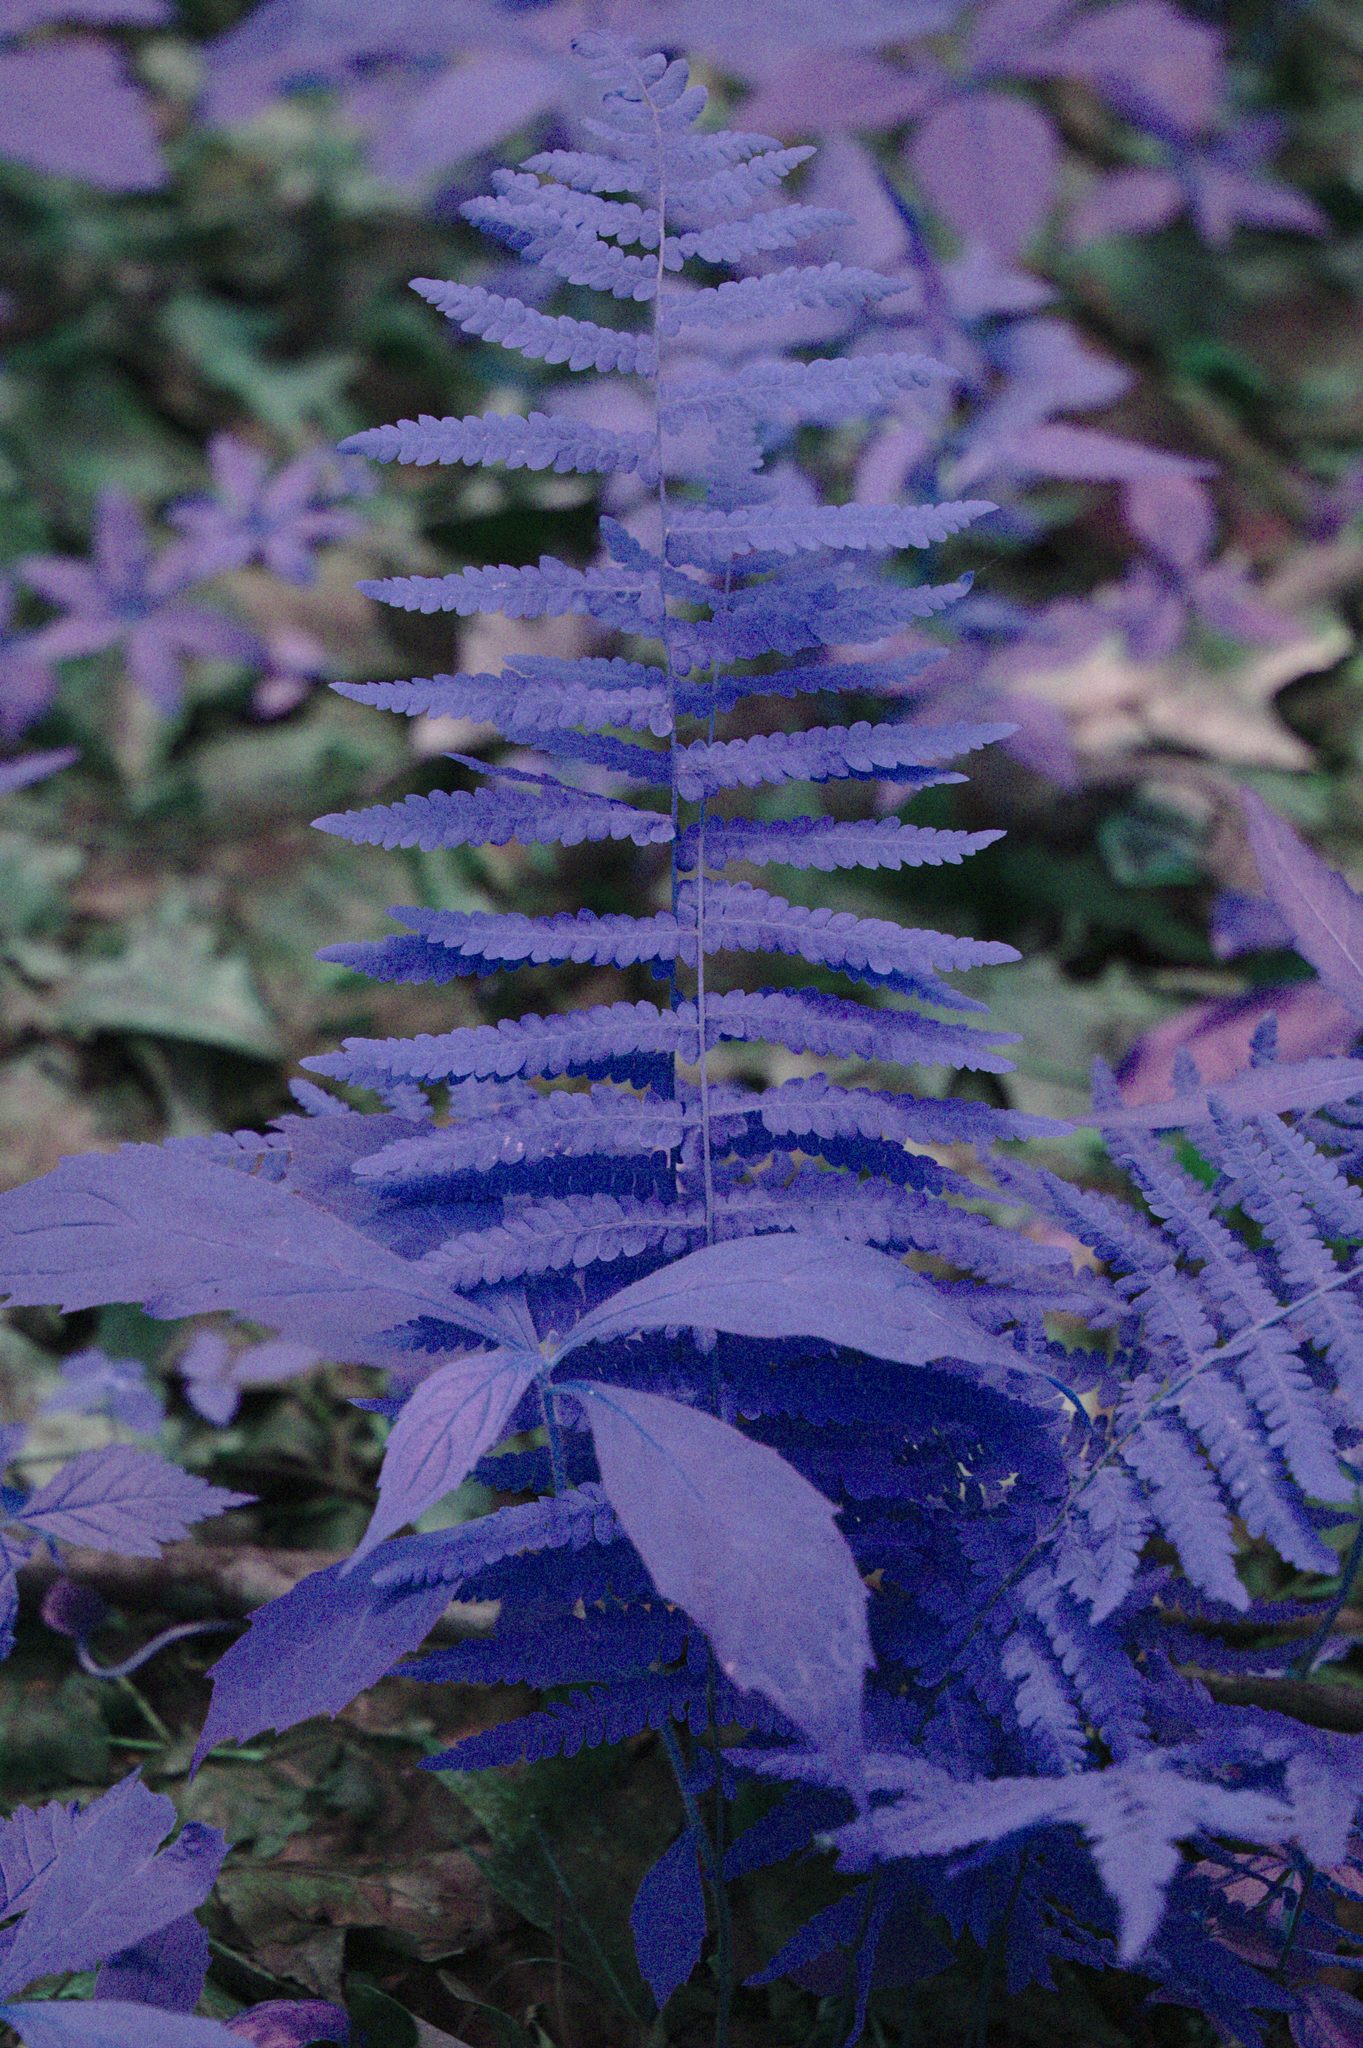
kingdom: Plantae
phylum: Tracheophyta
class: Polypodiopsida
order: Polypodiales
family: Thelypteridaceae
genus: Thelypteris
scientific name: Thelypteris palustris
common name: Marsh fern
